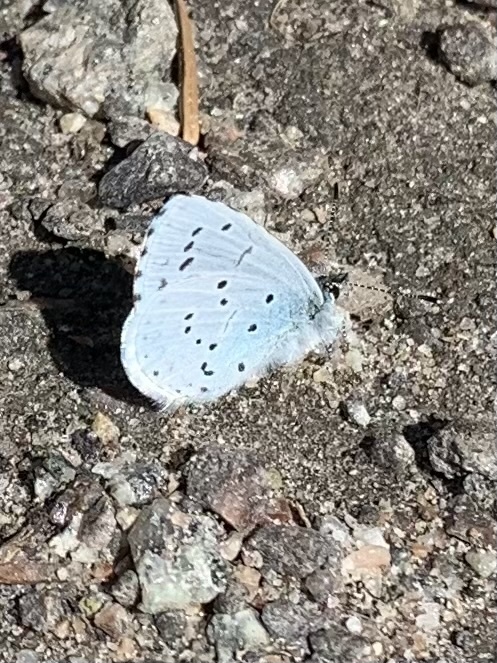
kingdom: Animalia
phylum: Arthropoda
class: Insecta
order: Lepidoptera
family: Lycaenidae
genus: Celastrina
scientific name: Celastrina argiolus
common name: Holly blue
